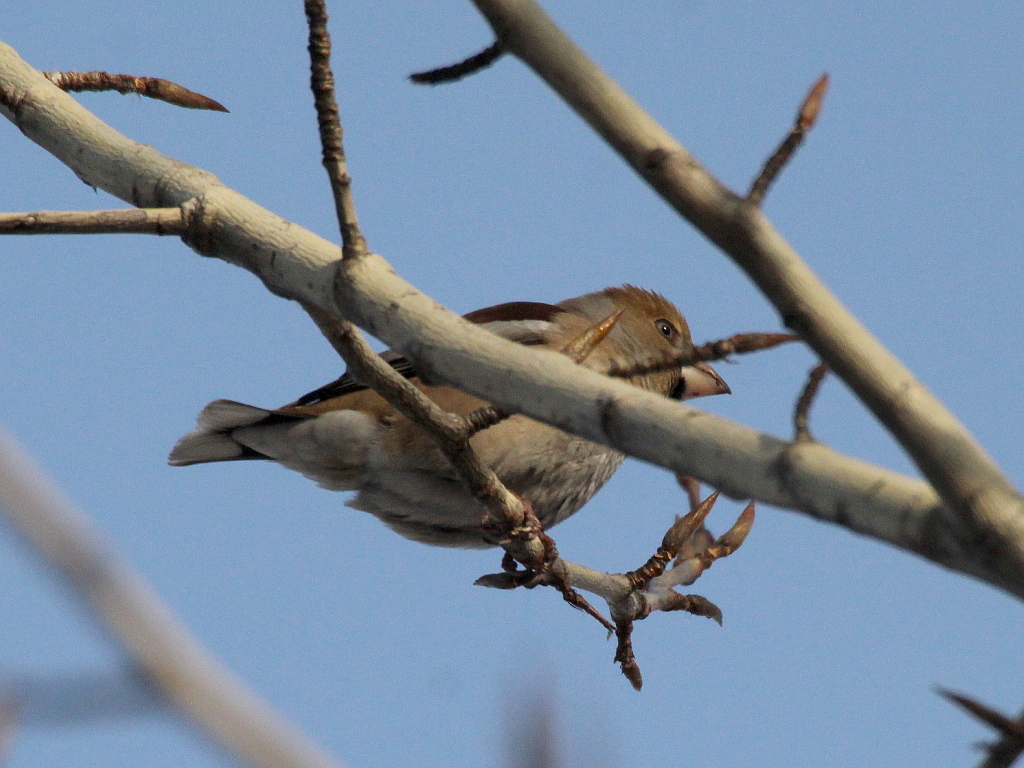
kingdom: Animalia
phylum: Chordata
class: Aves
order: Passeriformes
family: Fringillidae
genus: Coccothraustes
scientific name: Coccothraustes coccothraustes
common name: Hawfinch
